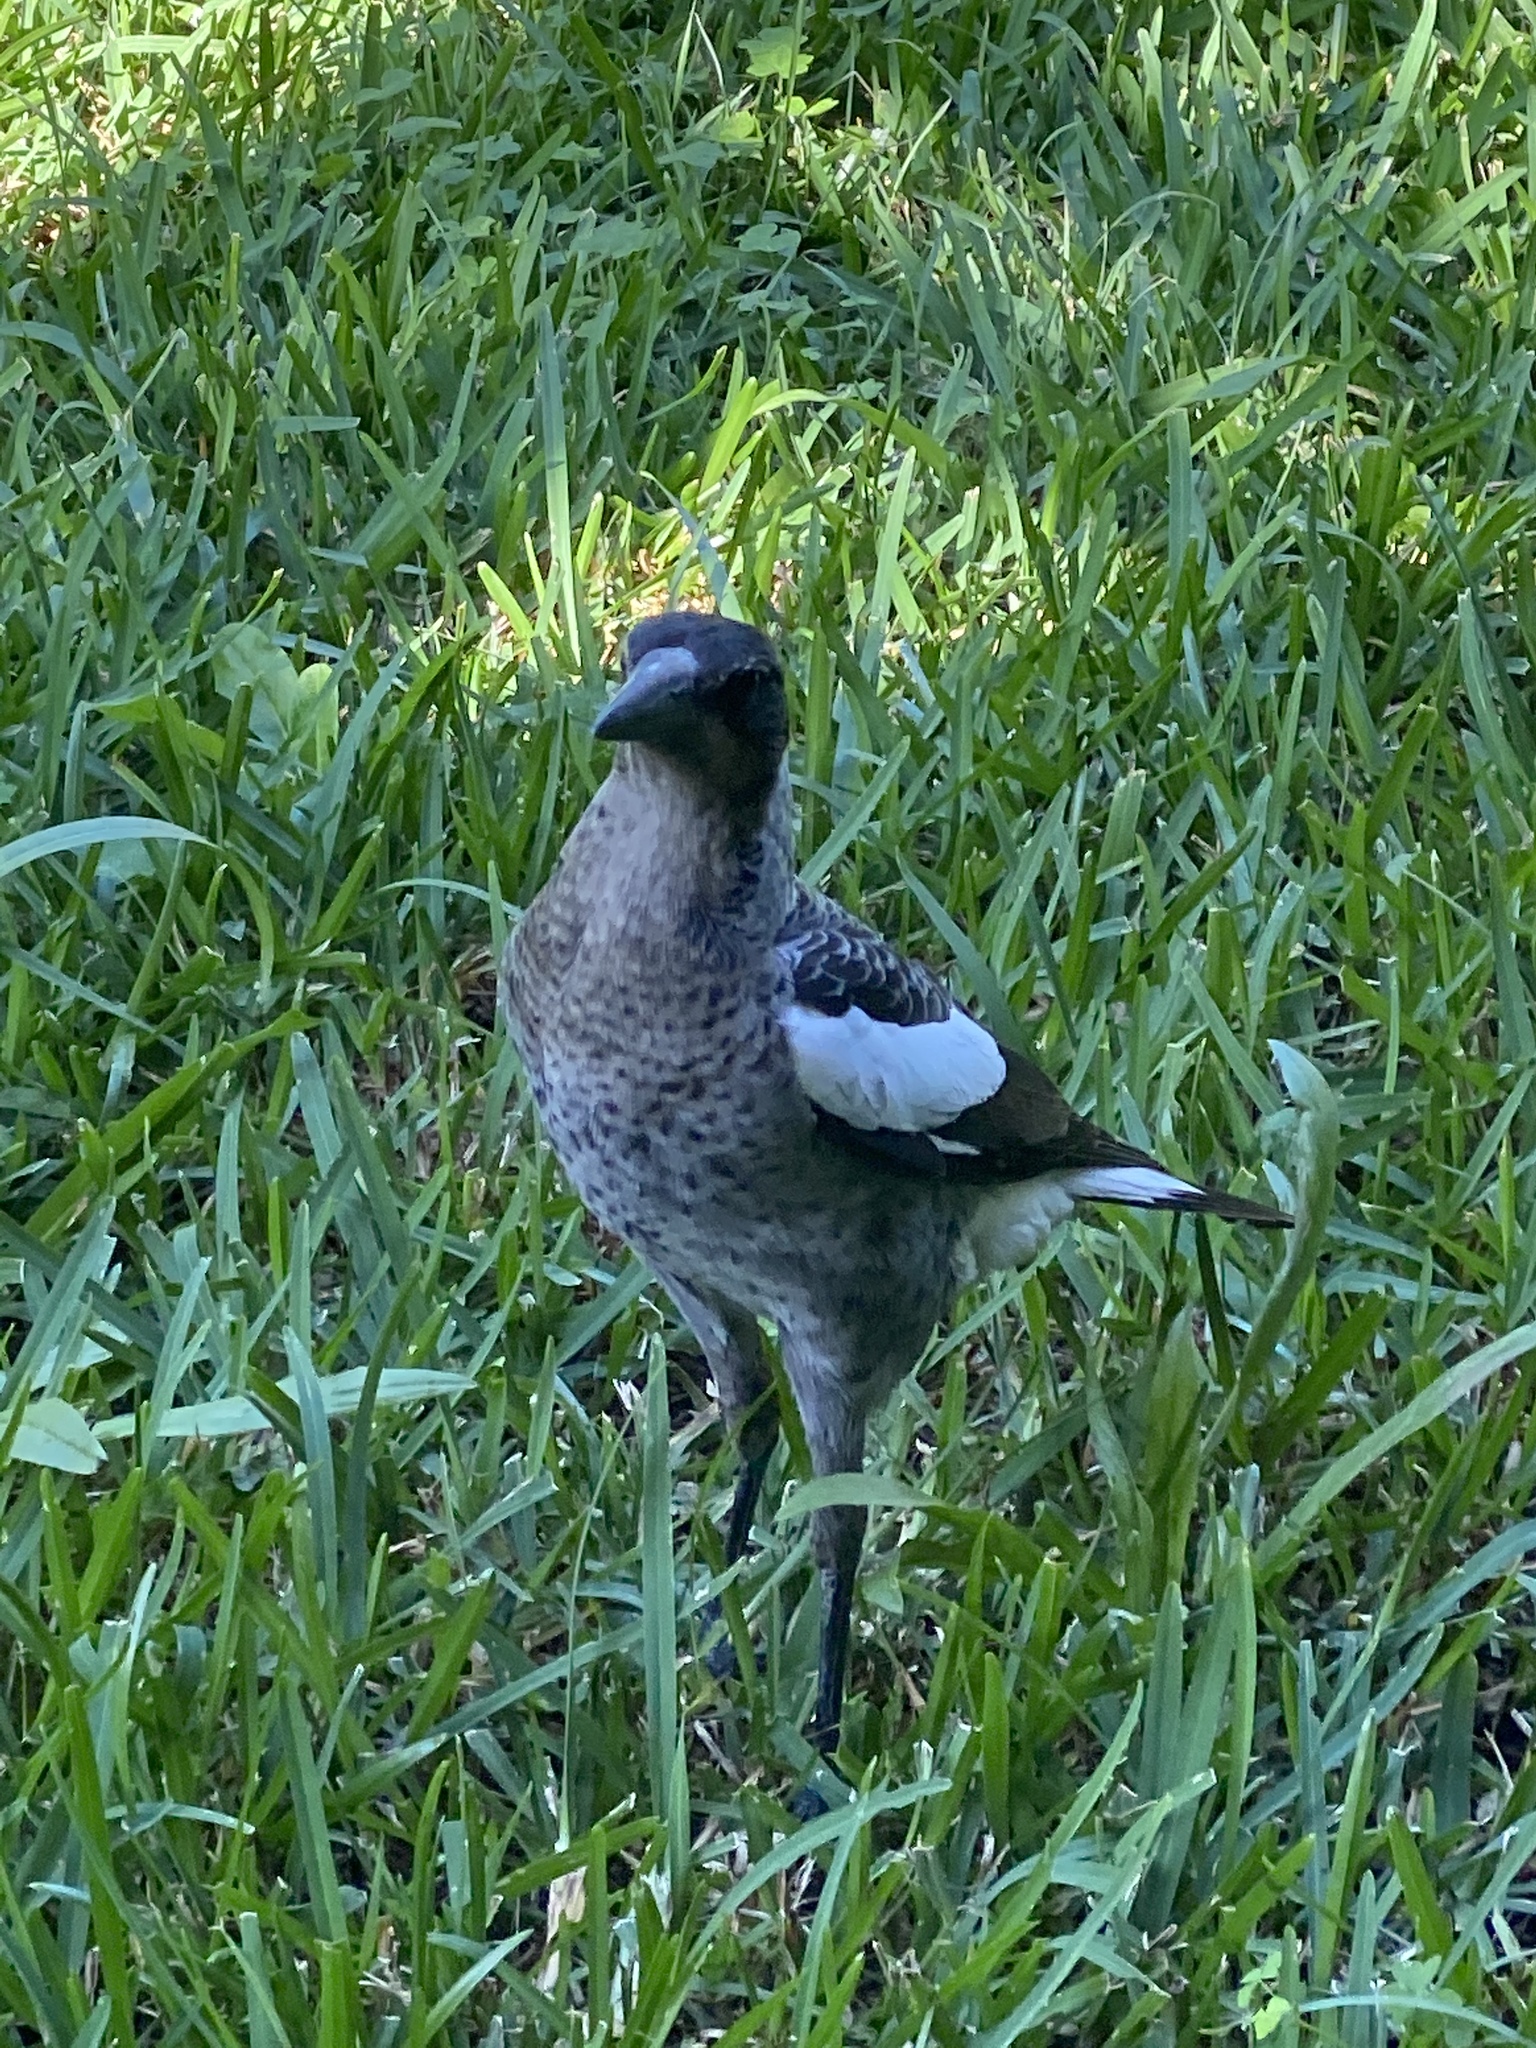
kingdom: Animalia
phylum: Chordata
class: Aves
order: Passeriformes
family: Cracticidae
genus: Gymnorhina
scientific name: Gymnorhina tibicen
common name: Australian magpie
